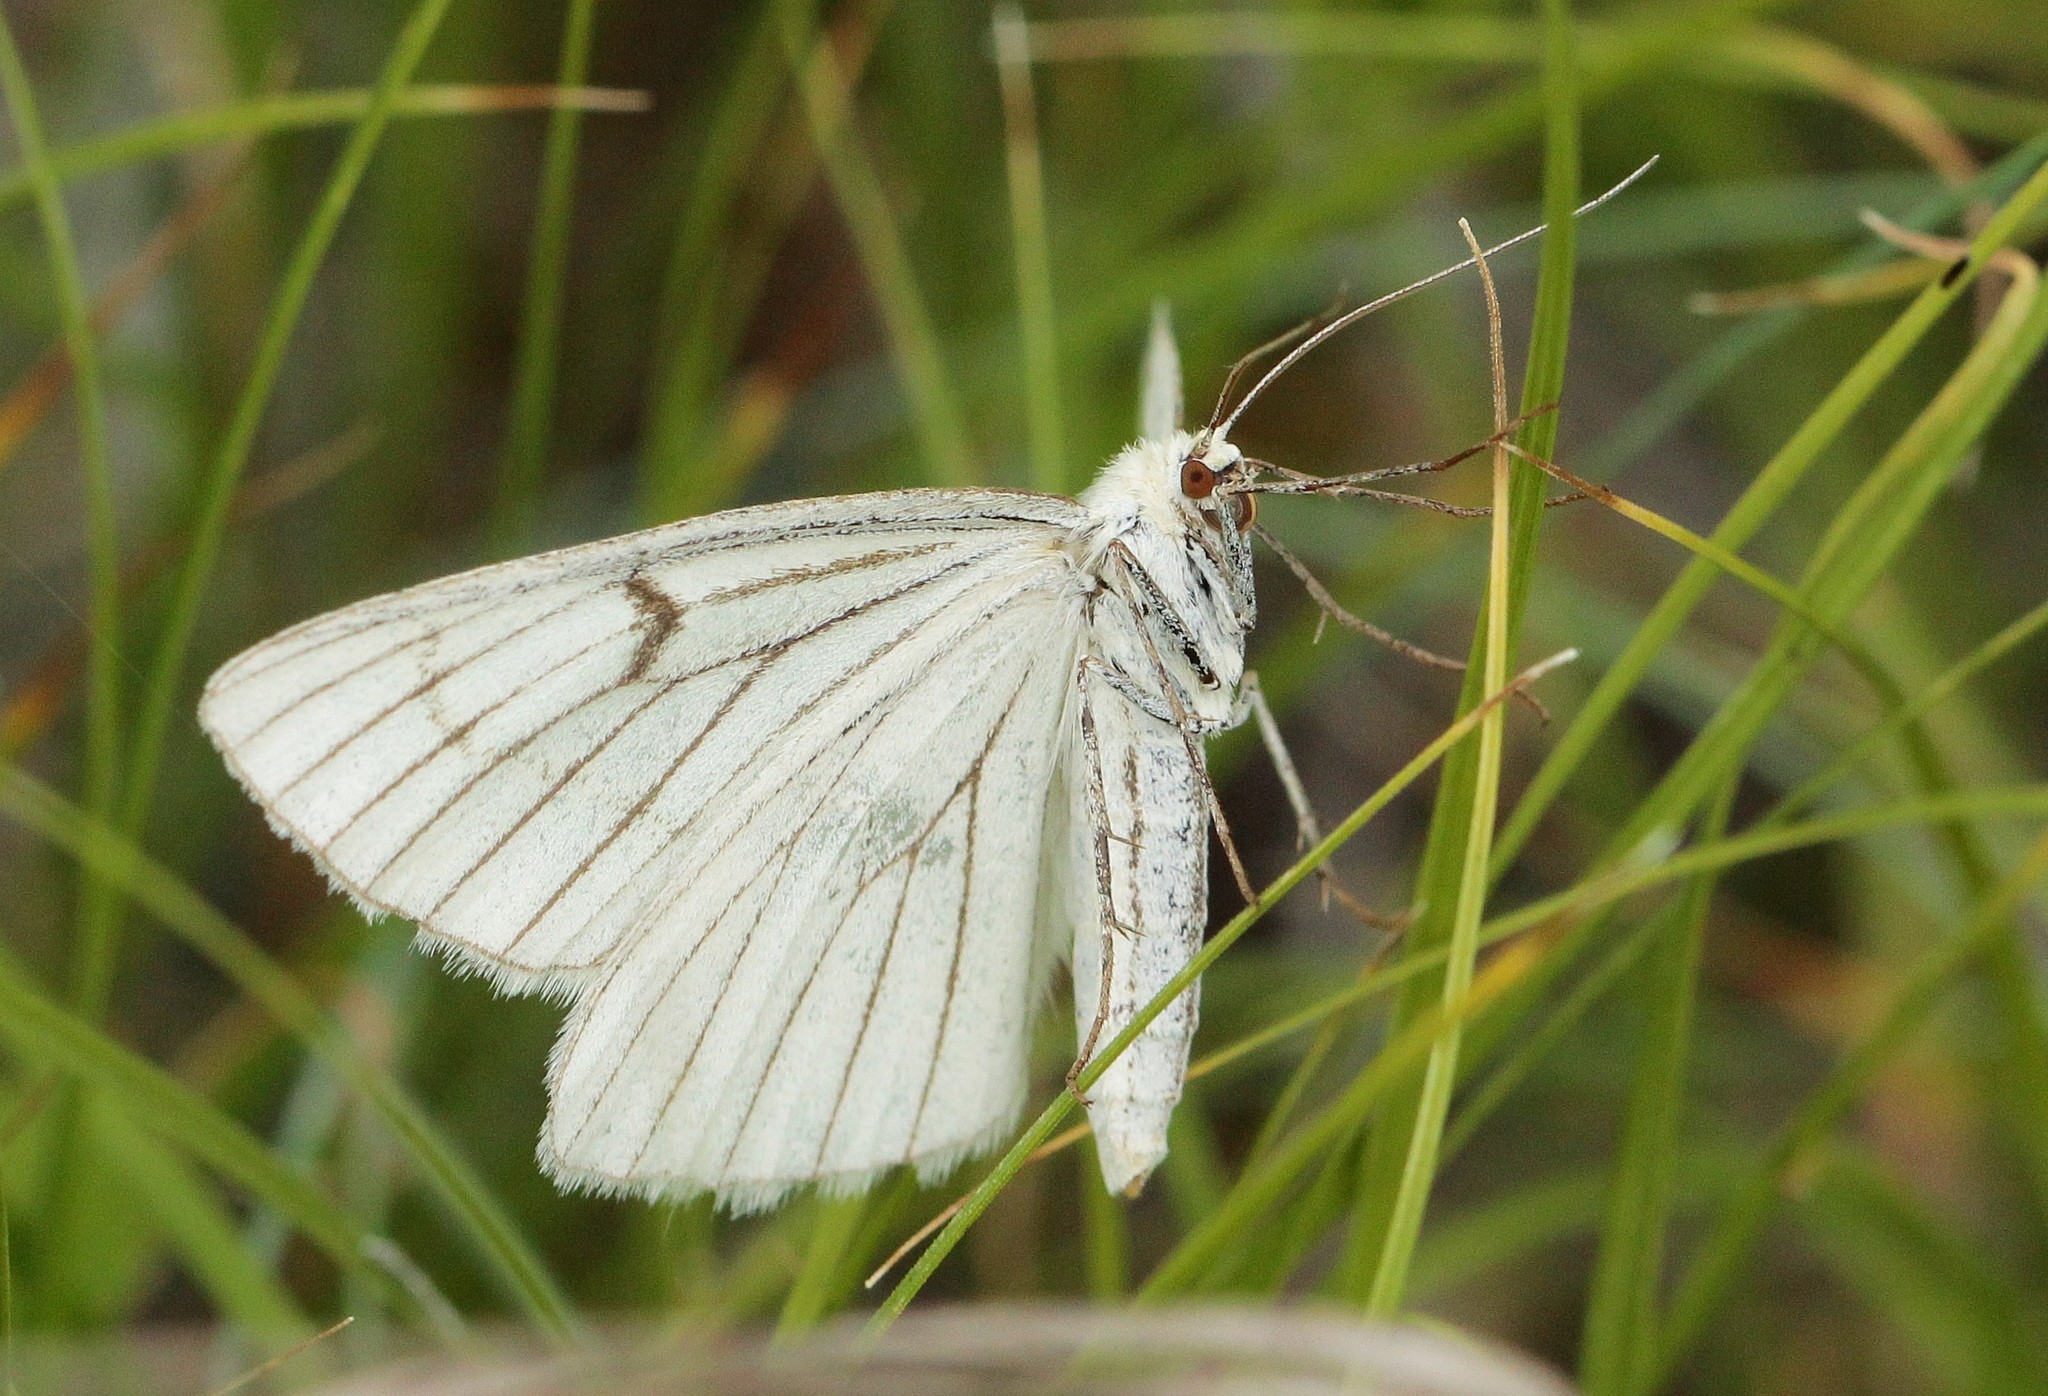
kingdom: Animalia
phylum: Arthropoda
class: Insecta
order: Lepidoptera
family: Geometridae
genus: Siona
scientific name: Siona lineata
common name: Black-veined moth
